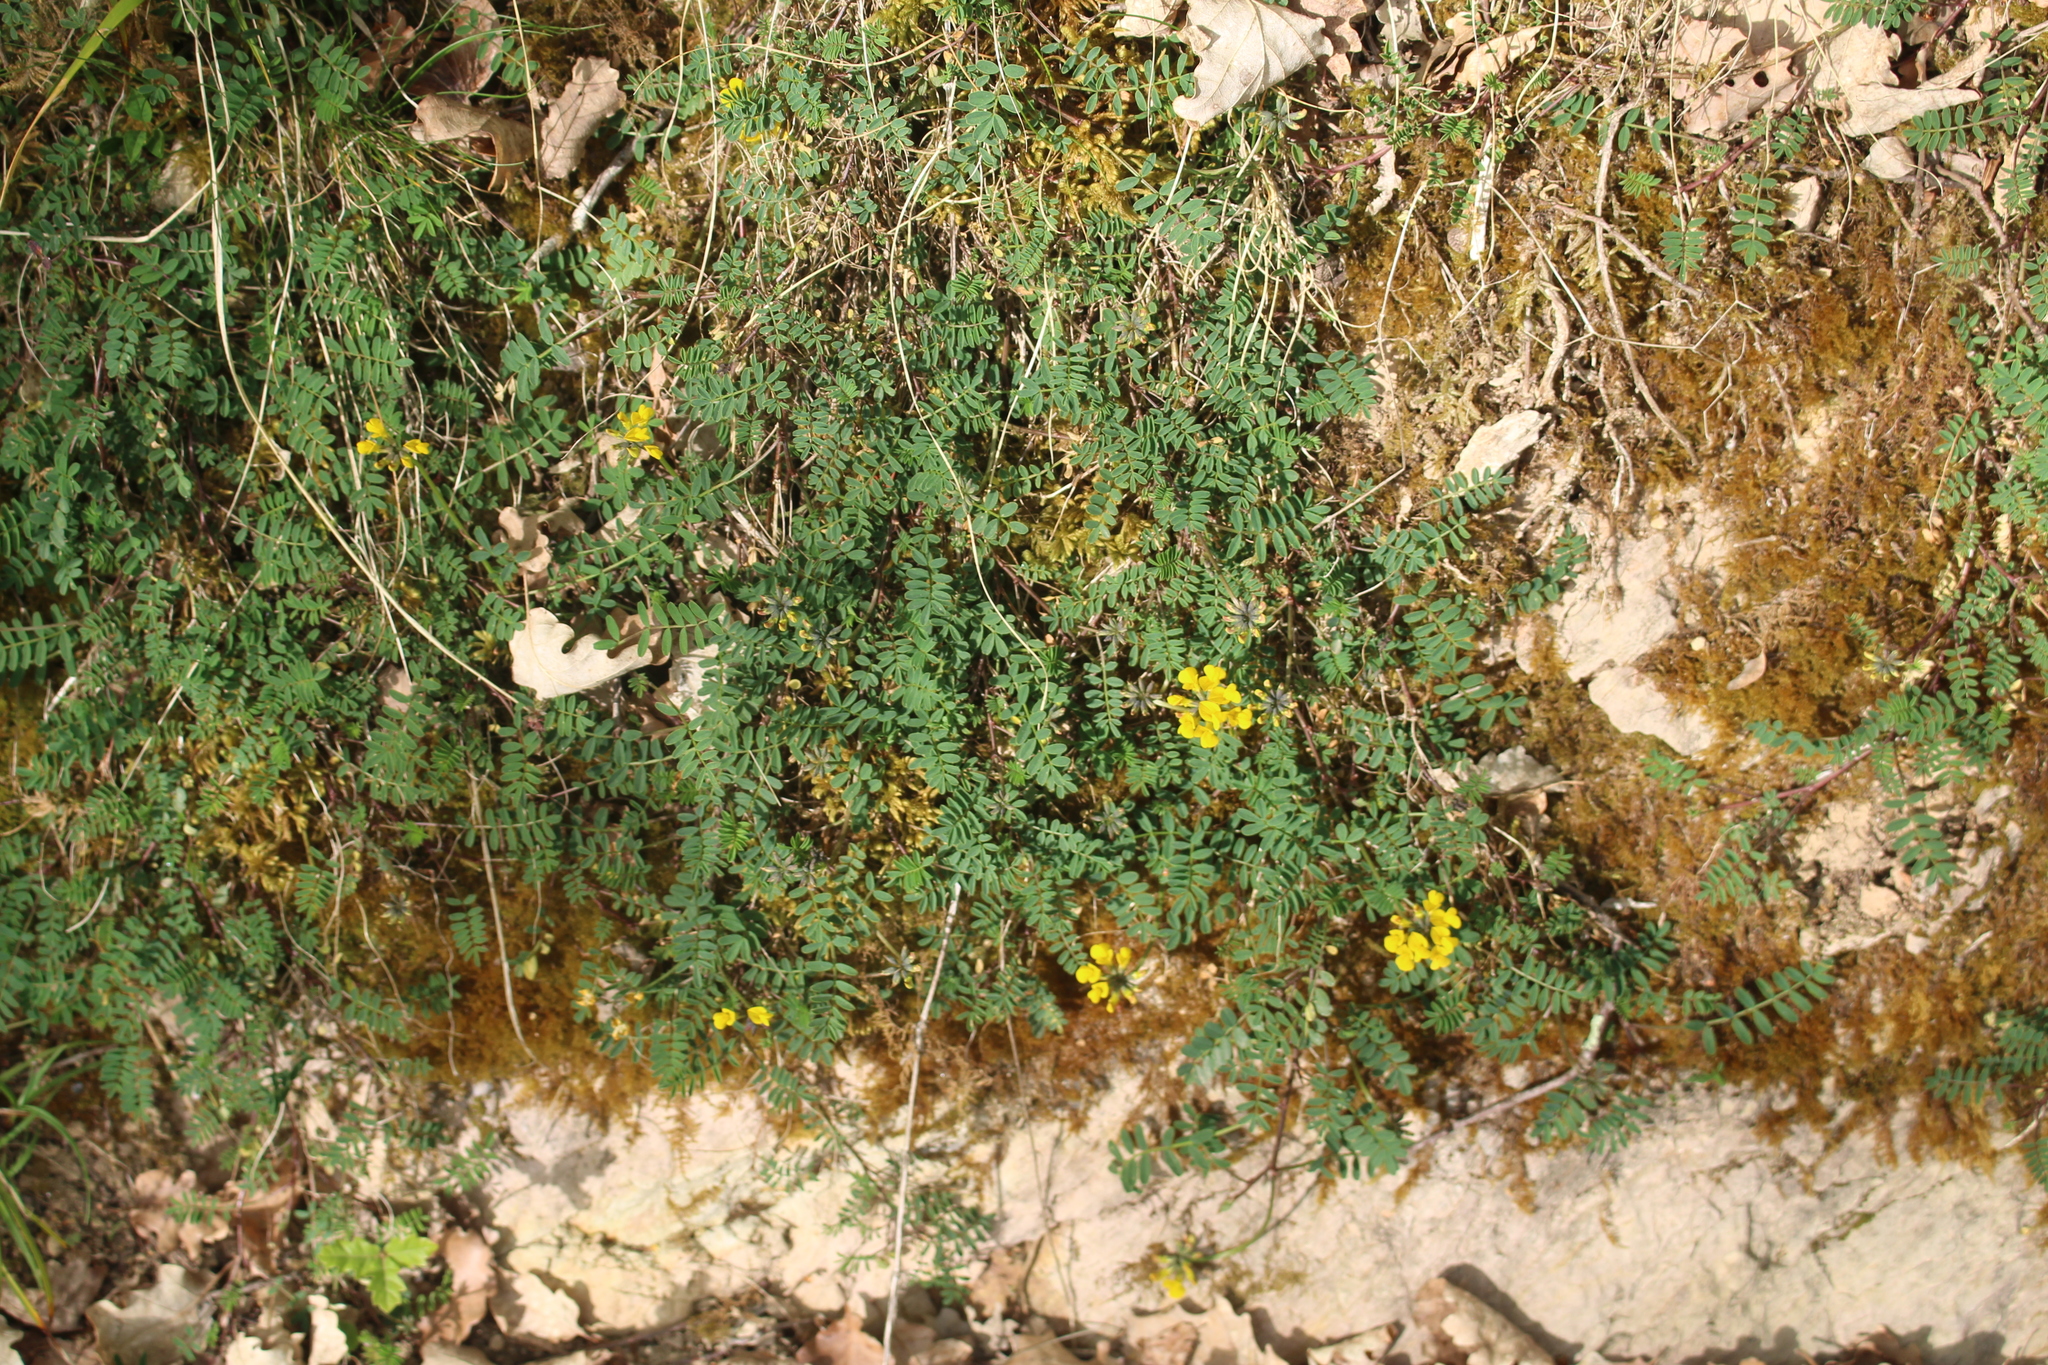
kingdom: Plantae
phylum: Tracheophyta
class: Magnoliopsida
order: Fabales
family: Fabaceae
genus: Hippocrepis
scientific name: Hippocrepis comosa
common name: Horseshoe vetch
